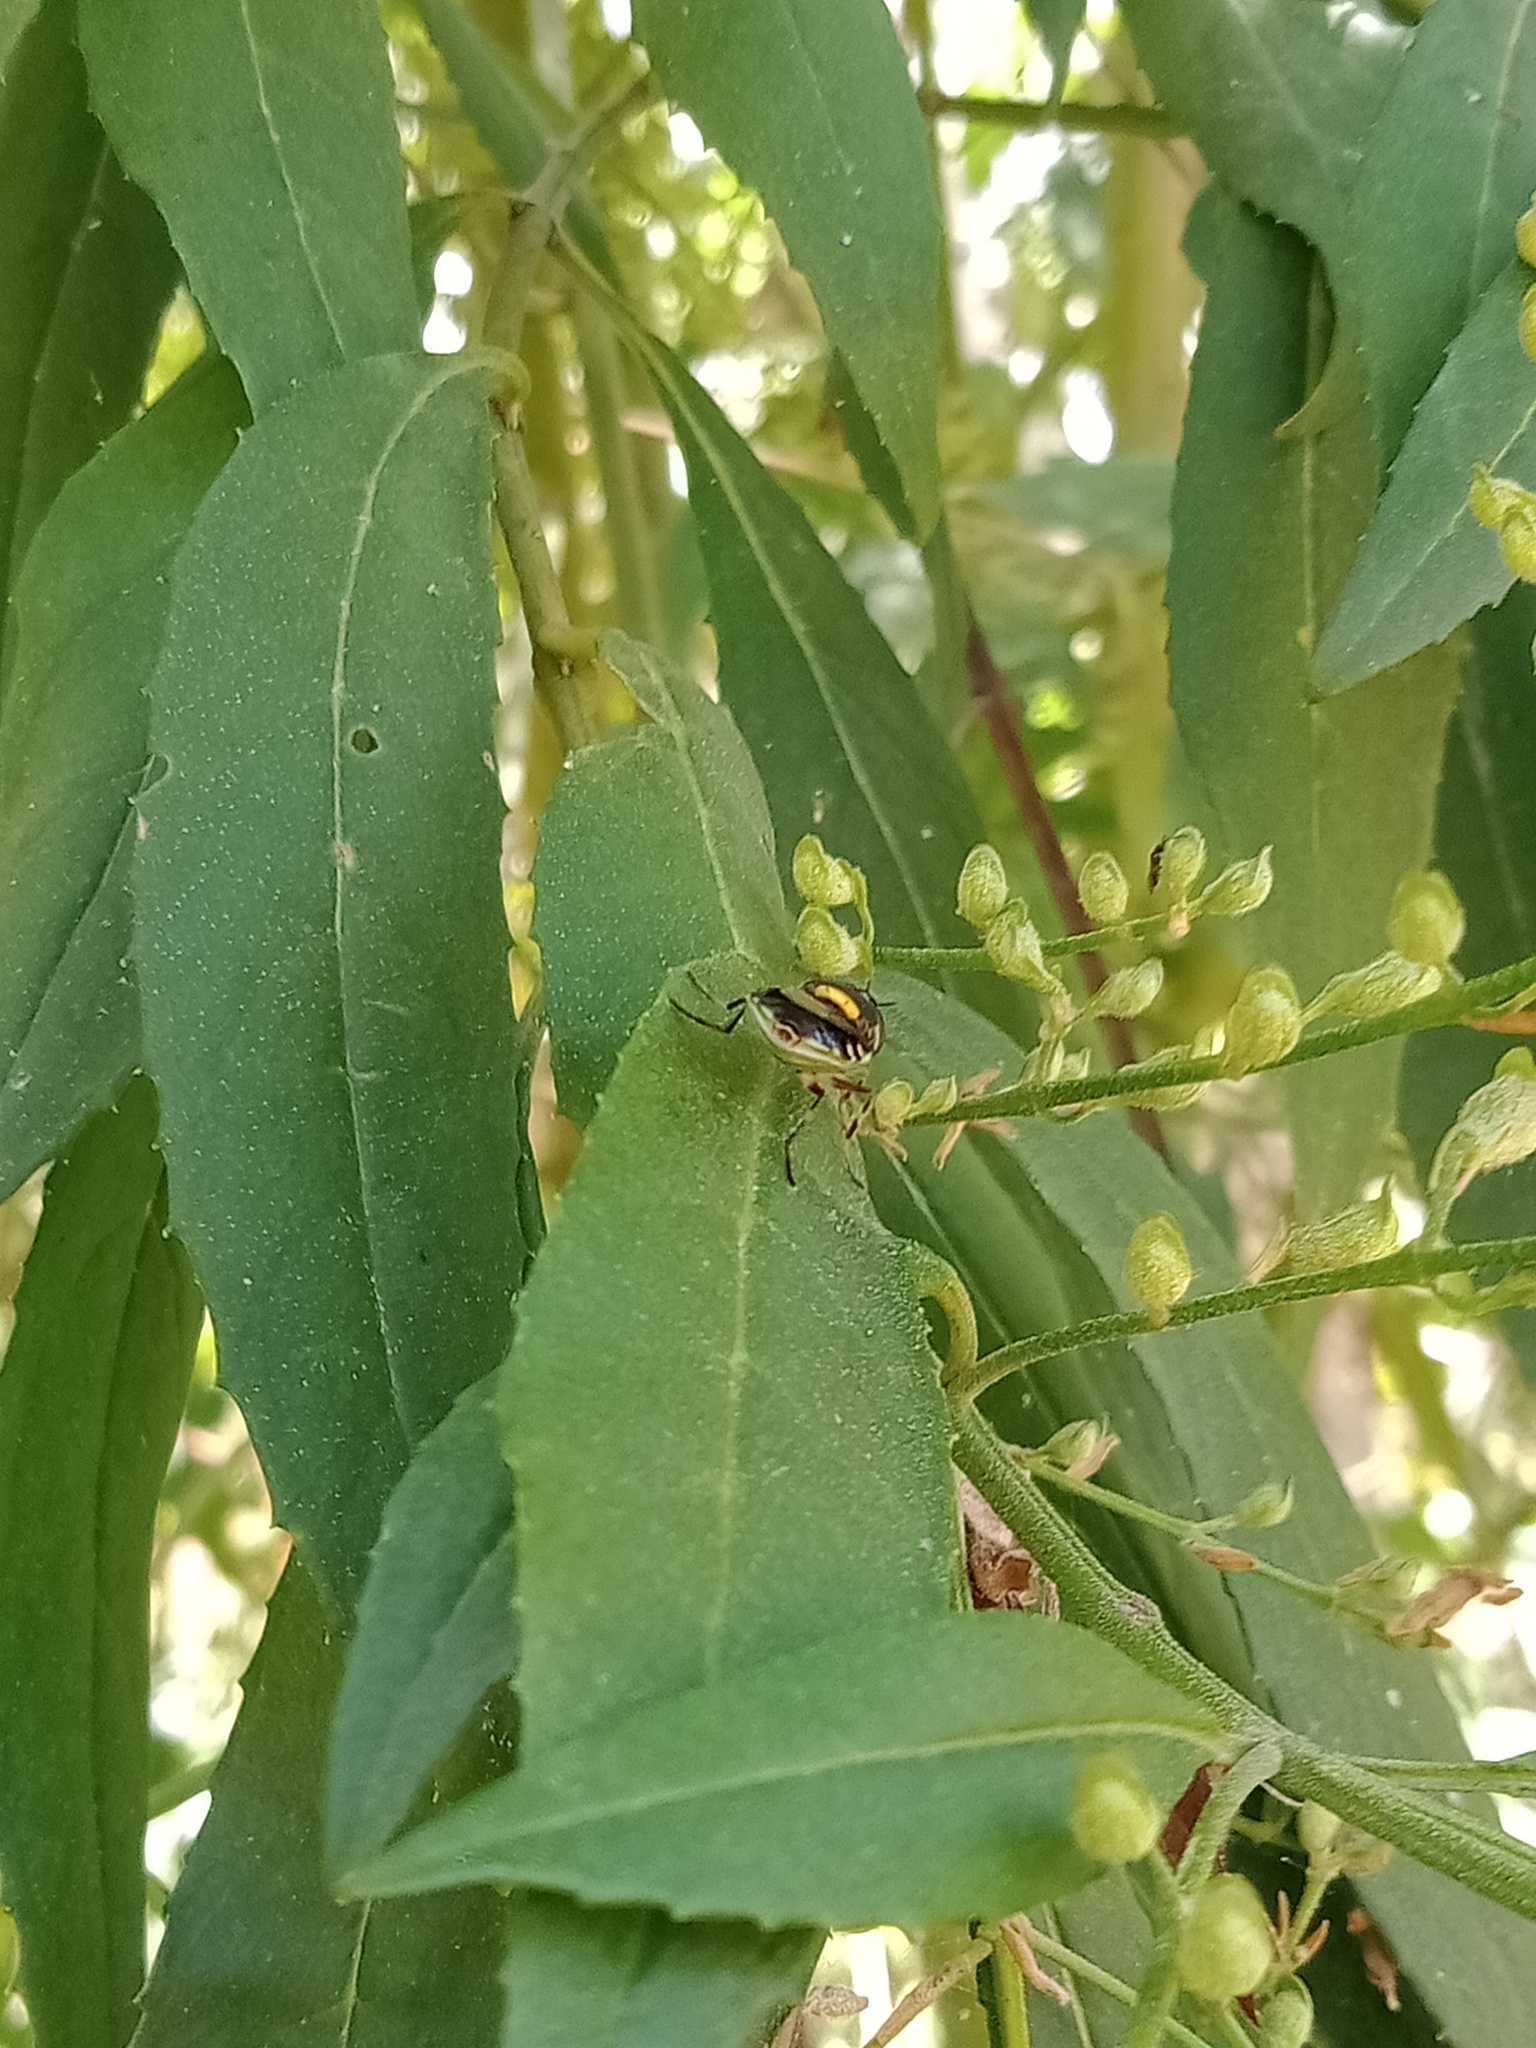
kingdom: Animalia
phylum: Arthropoda
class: Insecta
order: Diptera
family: Stratiomyidae
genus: Odontomyia
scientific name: Odontomyia hunteri
